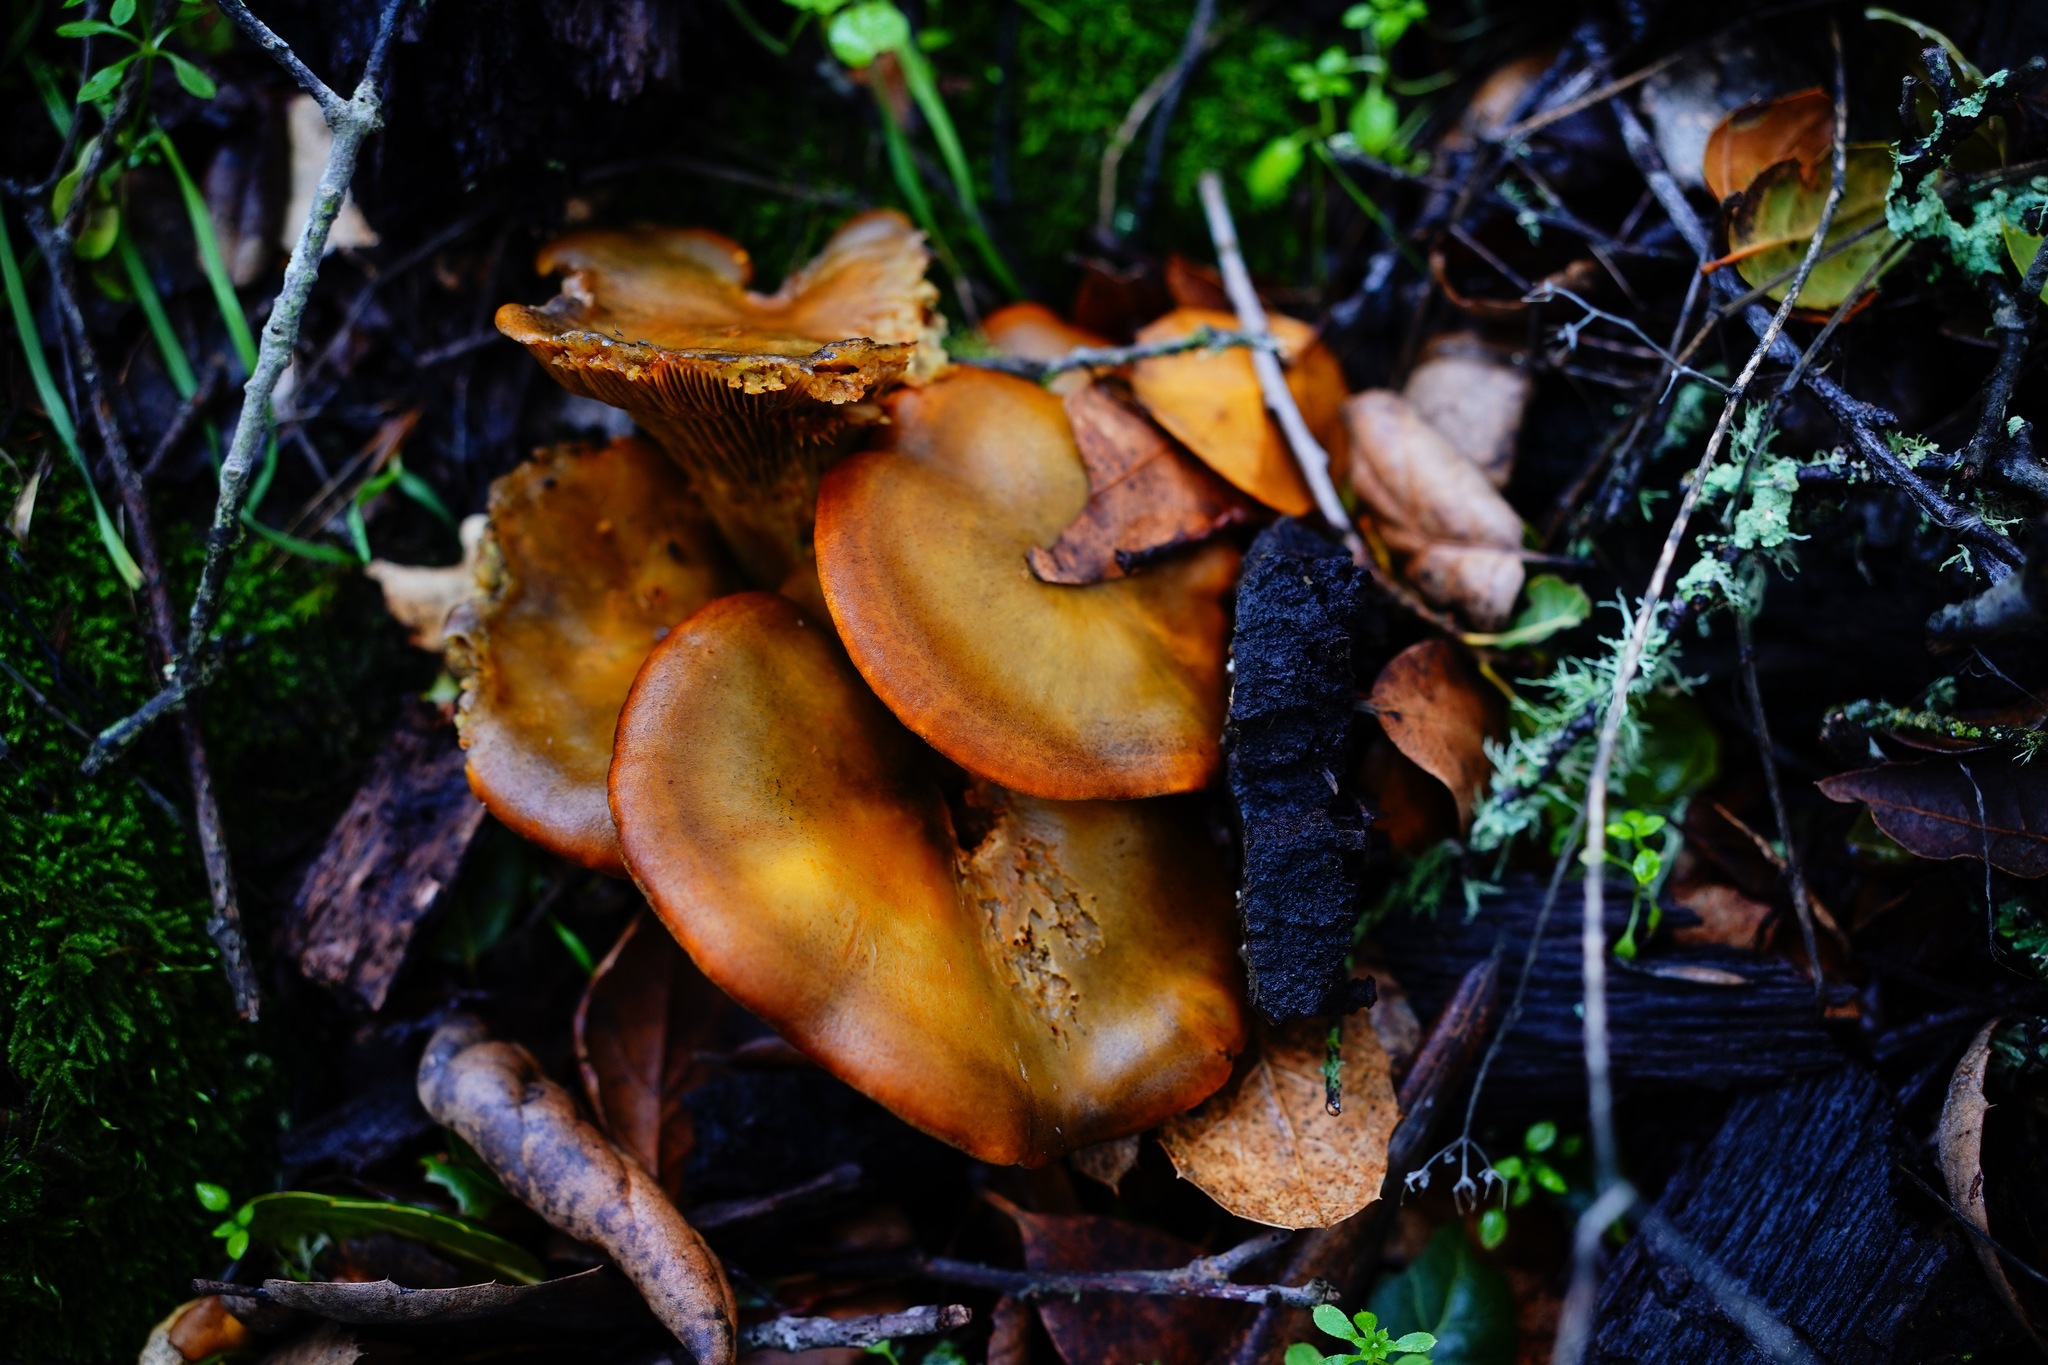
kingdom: Fungi
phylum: Basidiomycota
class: Agaricomycetes
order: Agaricales
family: Omphalotaceae
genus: Omphalotus
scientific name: Omphalotus olivascens
